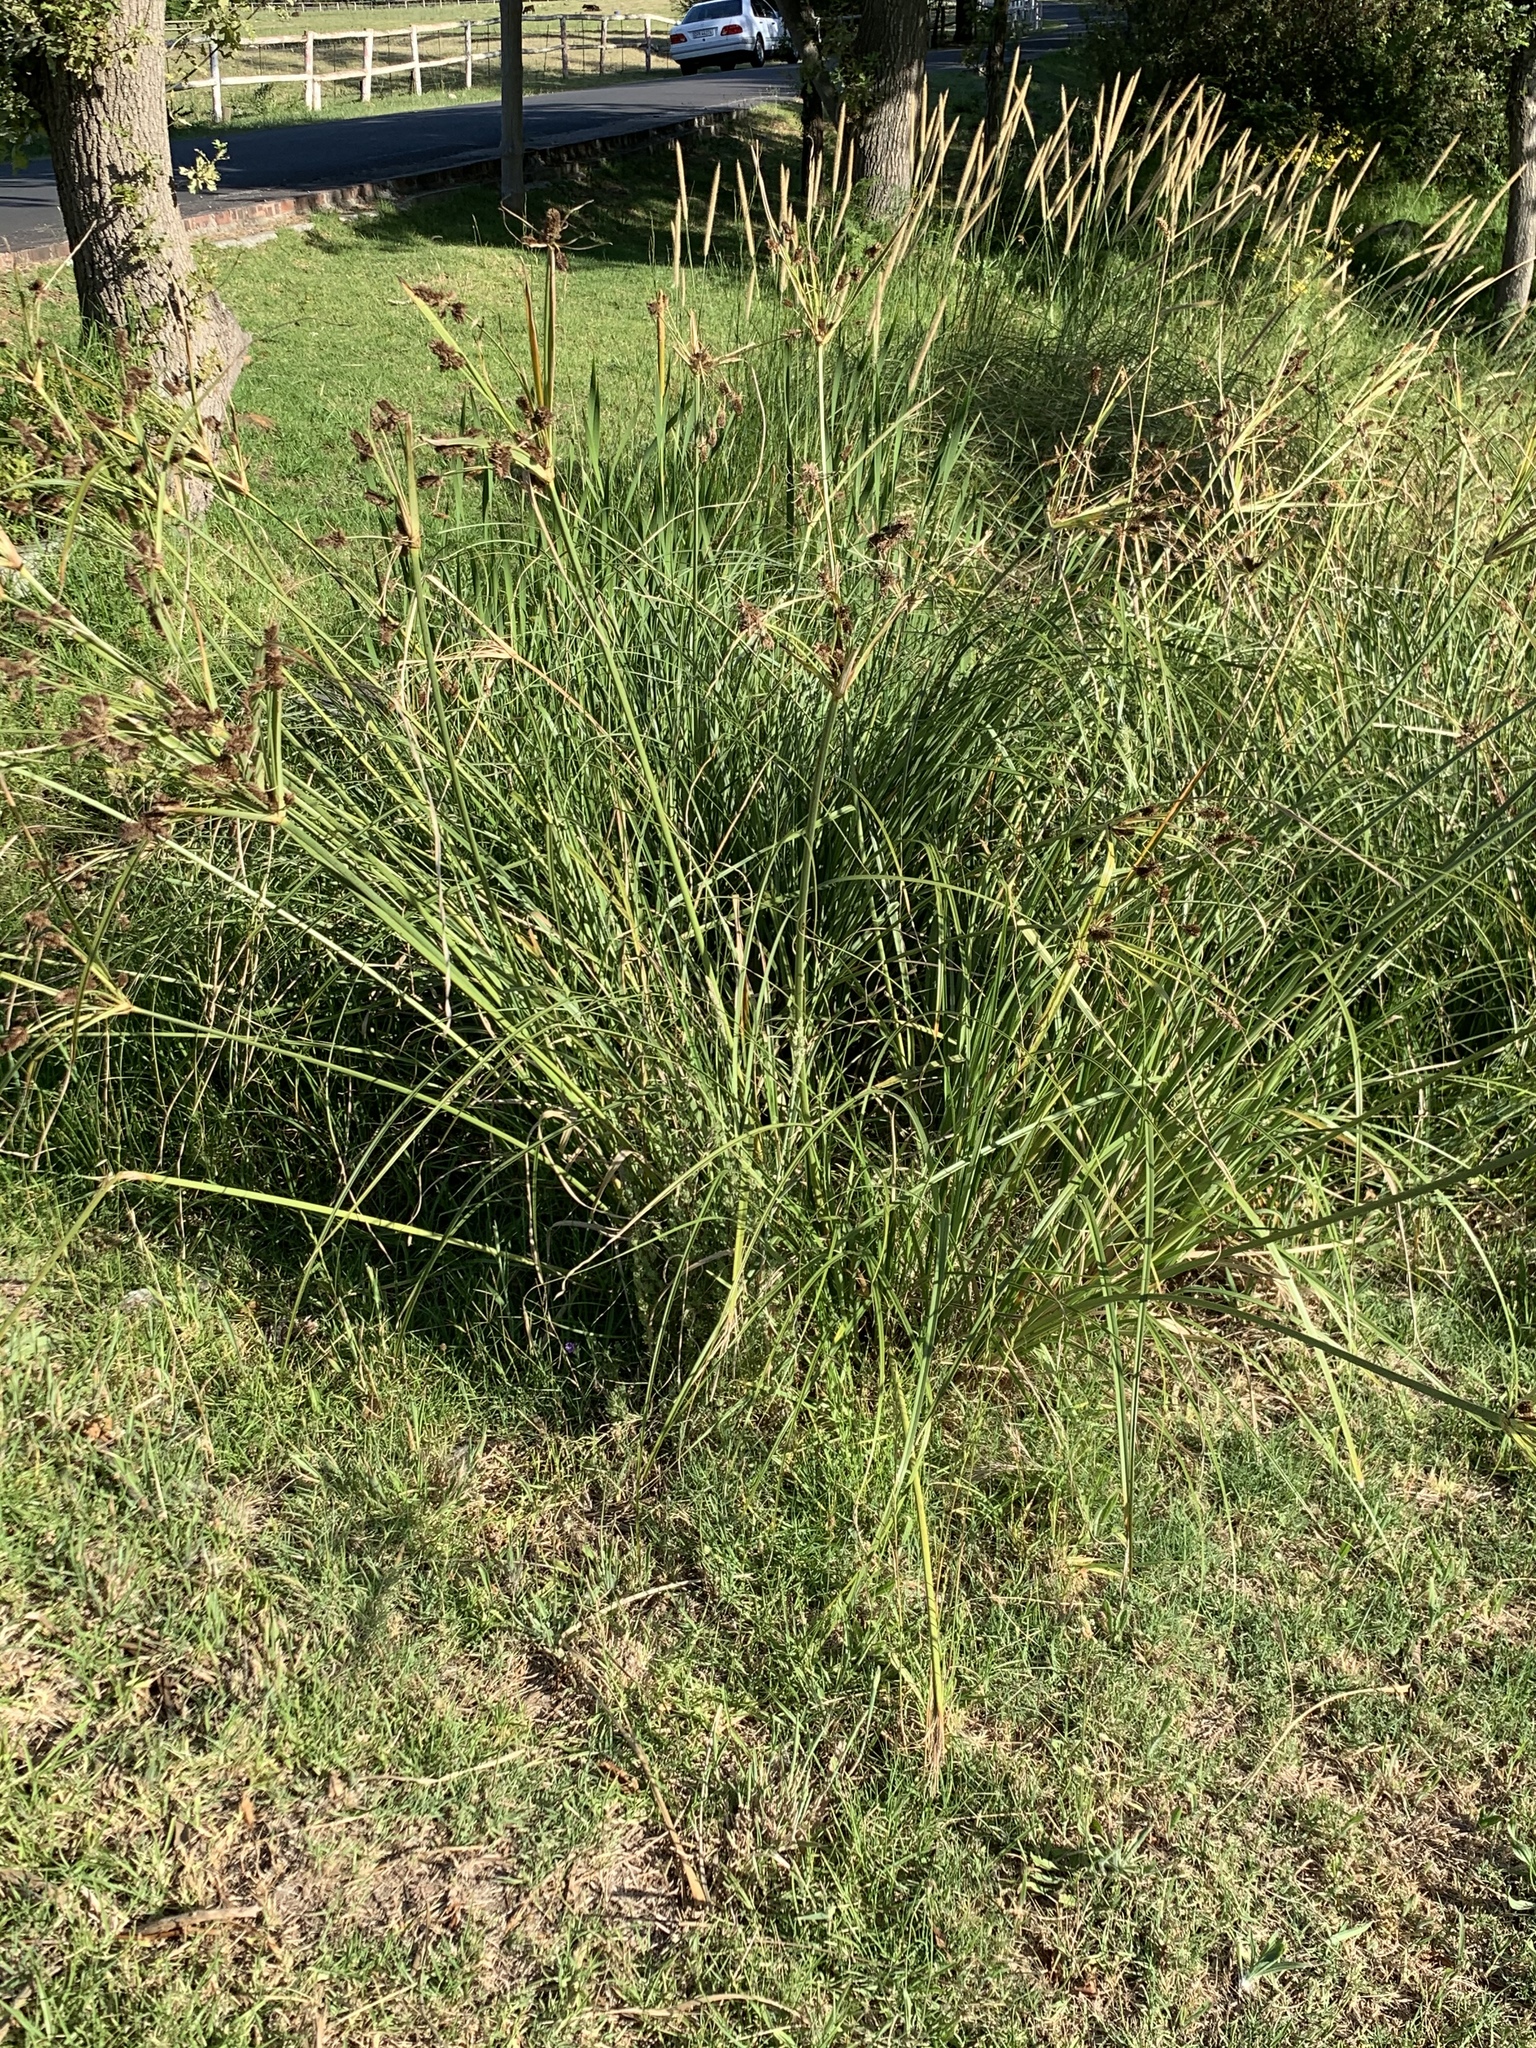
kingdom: Plantae
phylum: Tracheophyta
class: Liliopsida
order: Poales
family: Cyperaceae
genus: Cyperus
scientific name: Cyperus thunbergii
